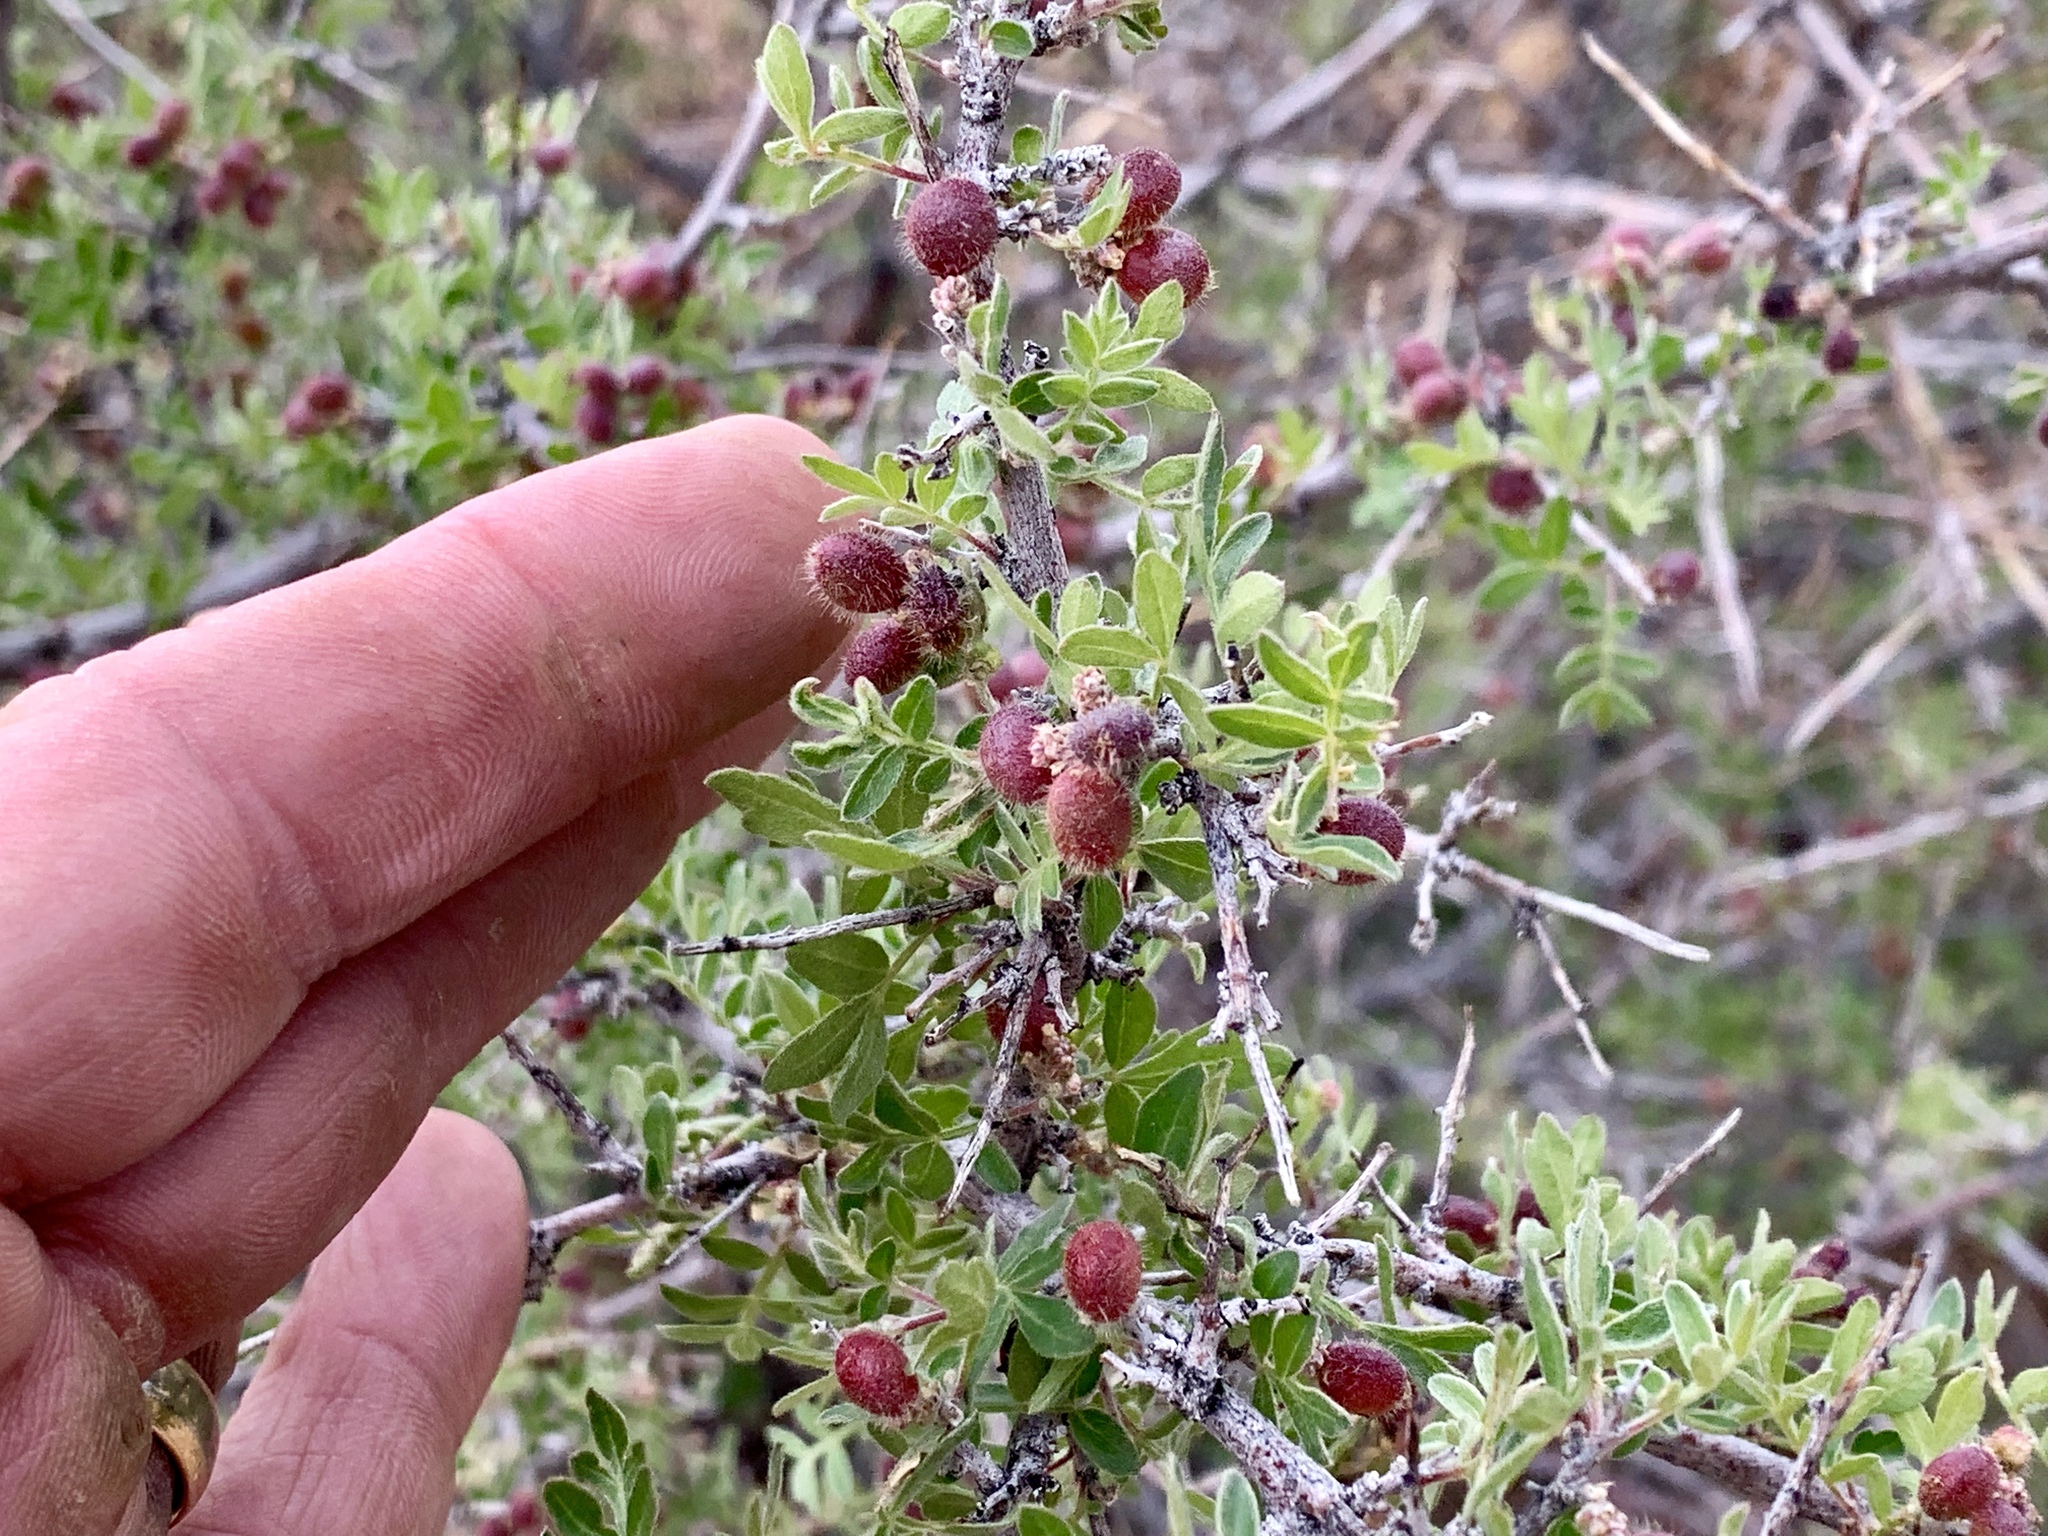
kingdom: Plantae
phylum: Tracheophyta
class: Magnoliopsida
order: Sapindales
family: Anacardiaceae
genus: Rhus
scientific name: Rhus microphylla
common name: Desert sumac
